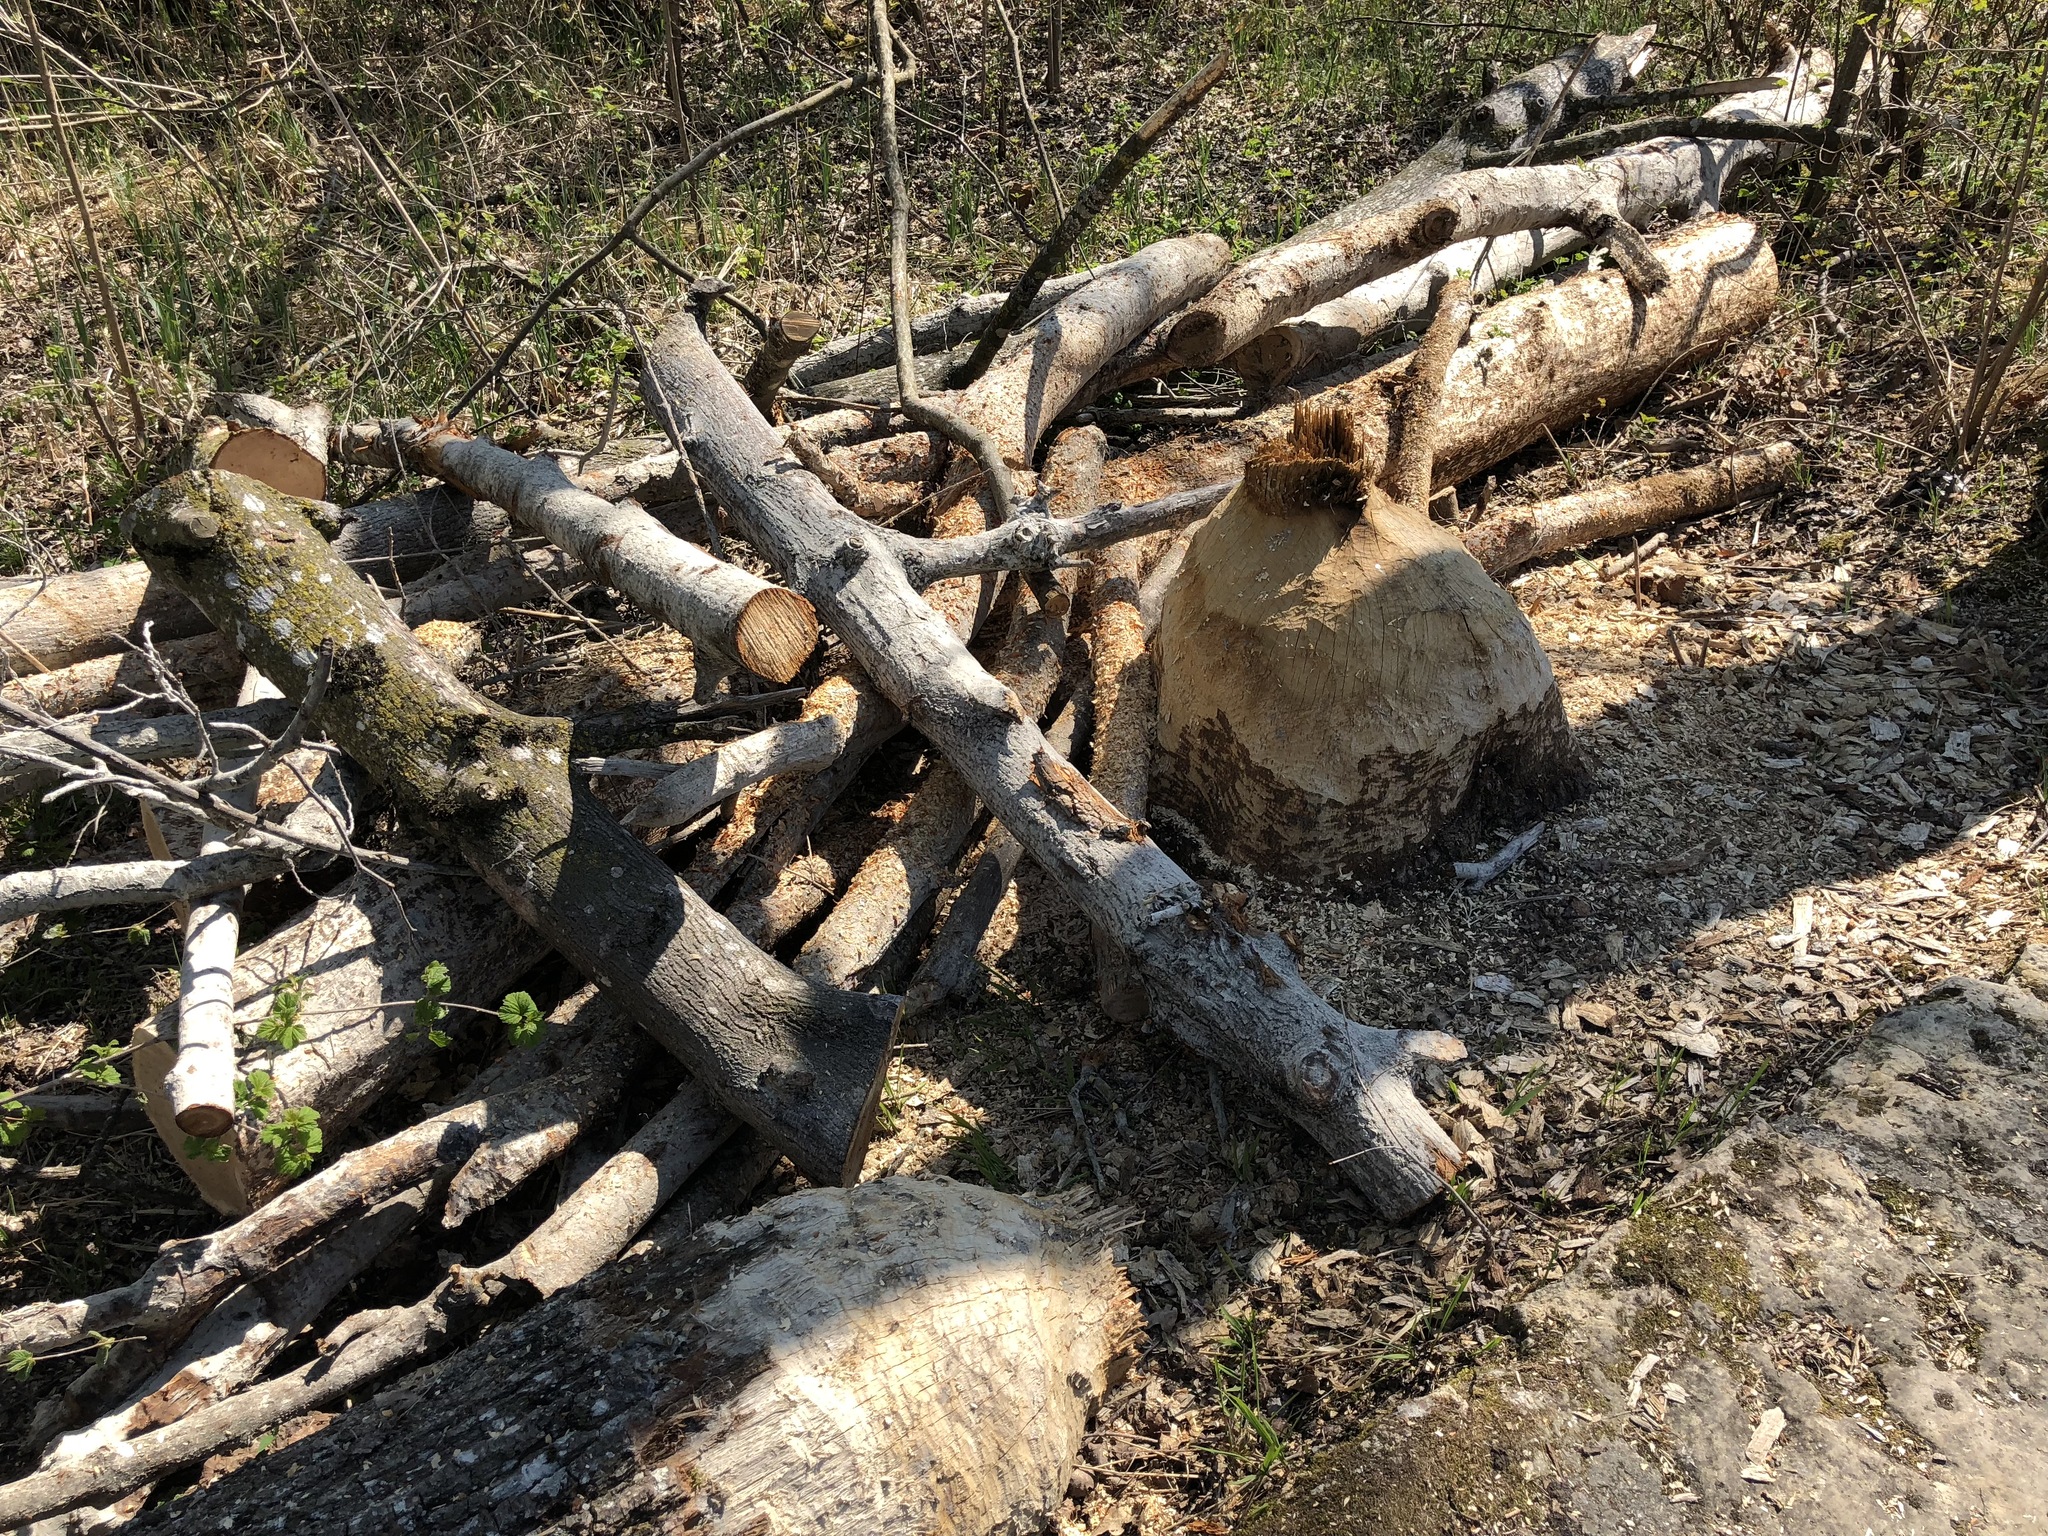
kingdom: Animalia
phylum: Chordata
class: Mammalia
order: Rodentia
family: Castoridae
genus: Castor
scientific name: Castor fiber
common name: Eurasian beaver
